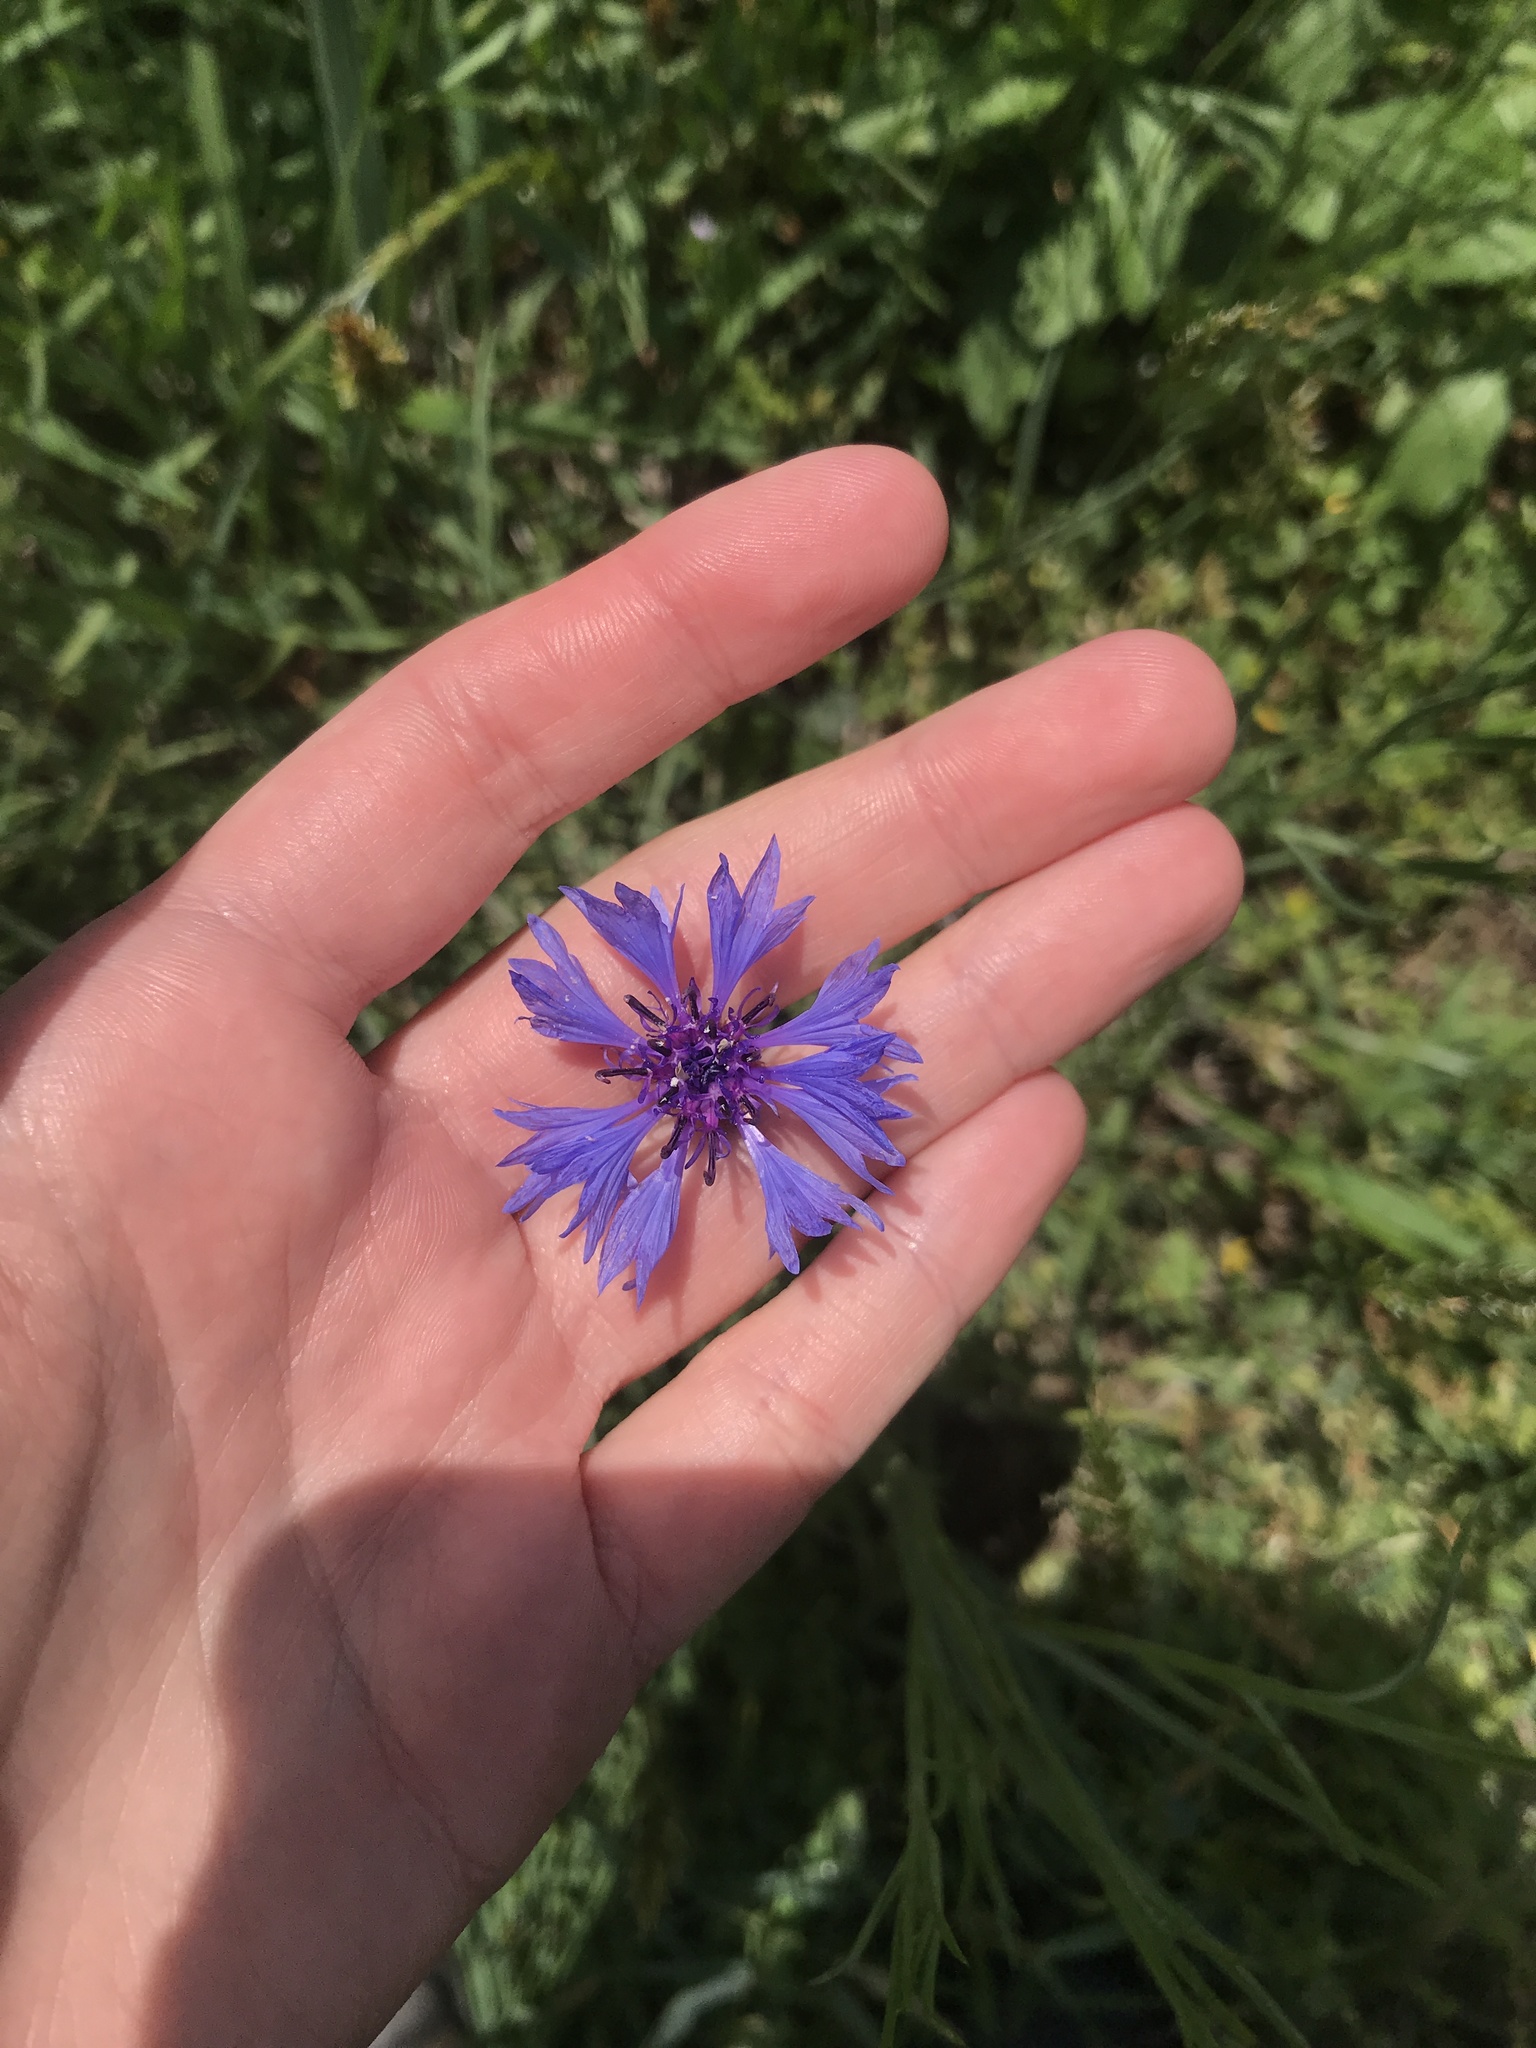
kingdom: Plantae
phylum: Tracheophyta
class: Magnoliopsida
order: Asterales
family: Asteraceae
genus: Centaurea
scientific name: Centaurea cyanus
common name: Cornflower
